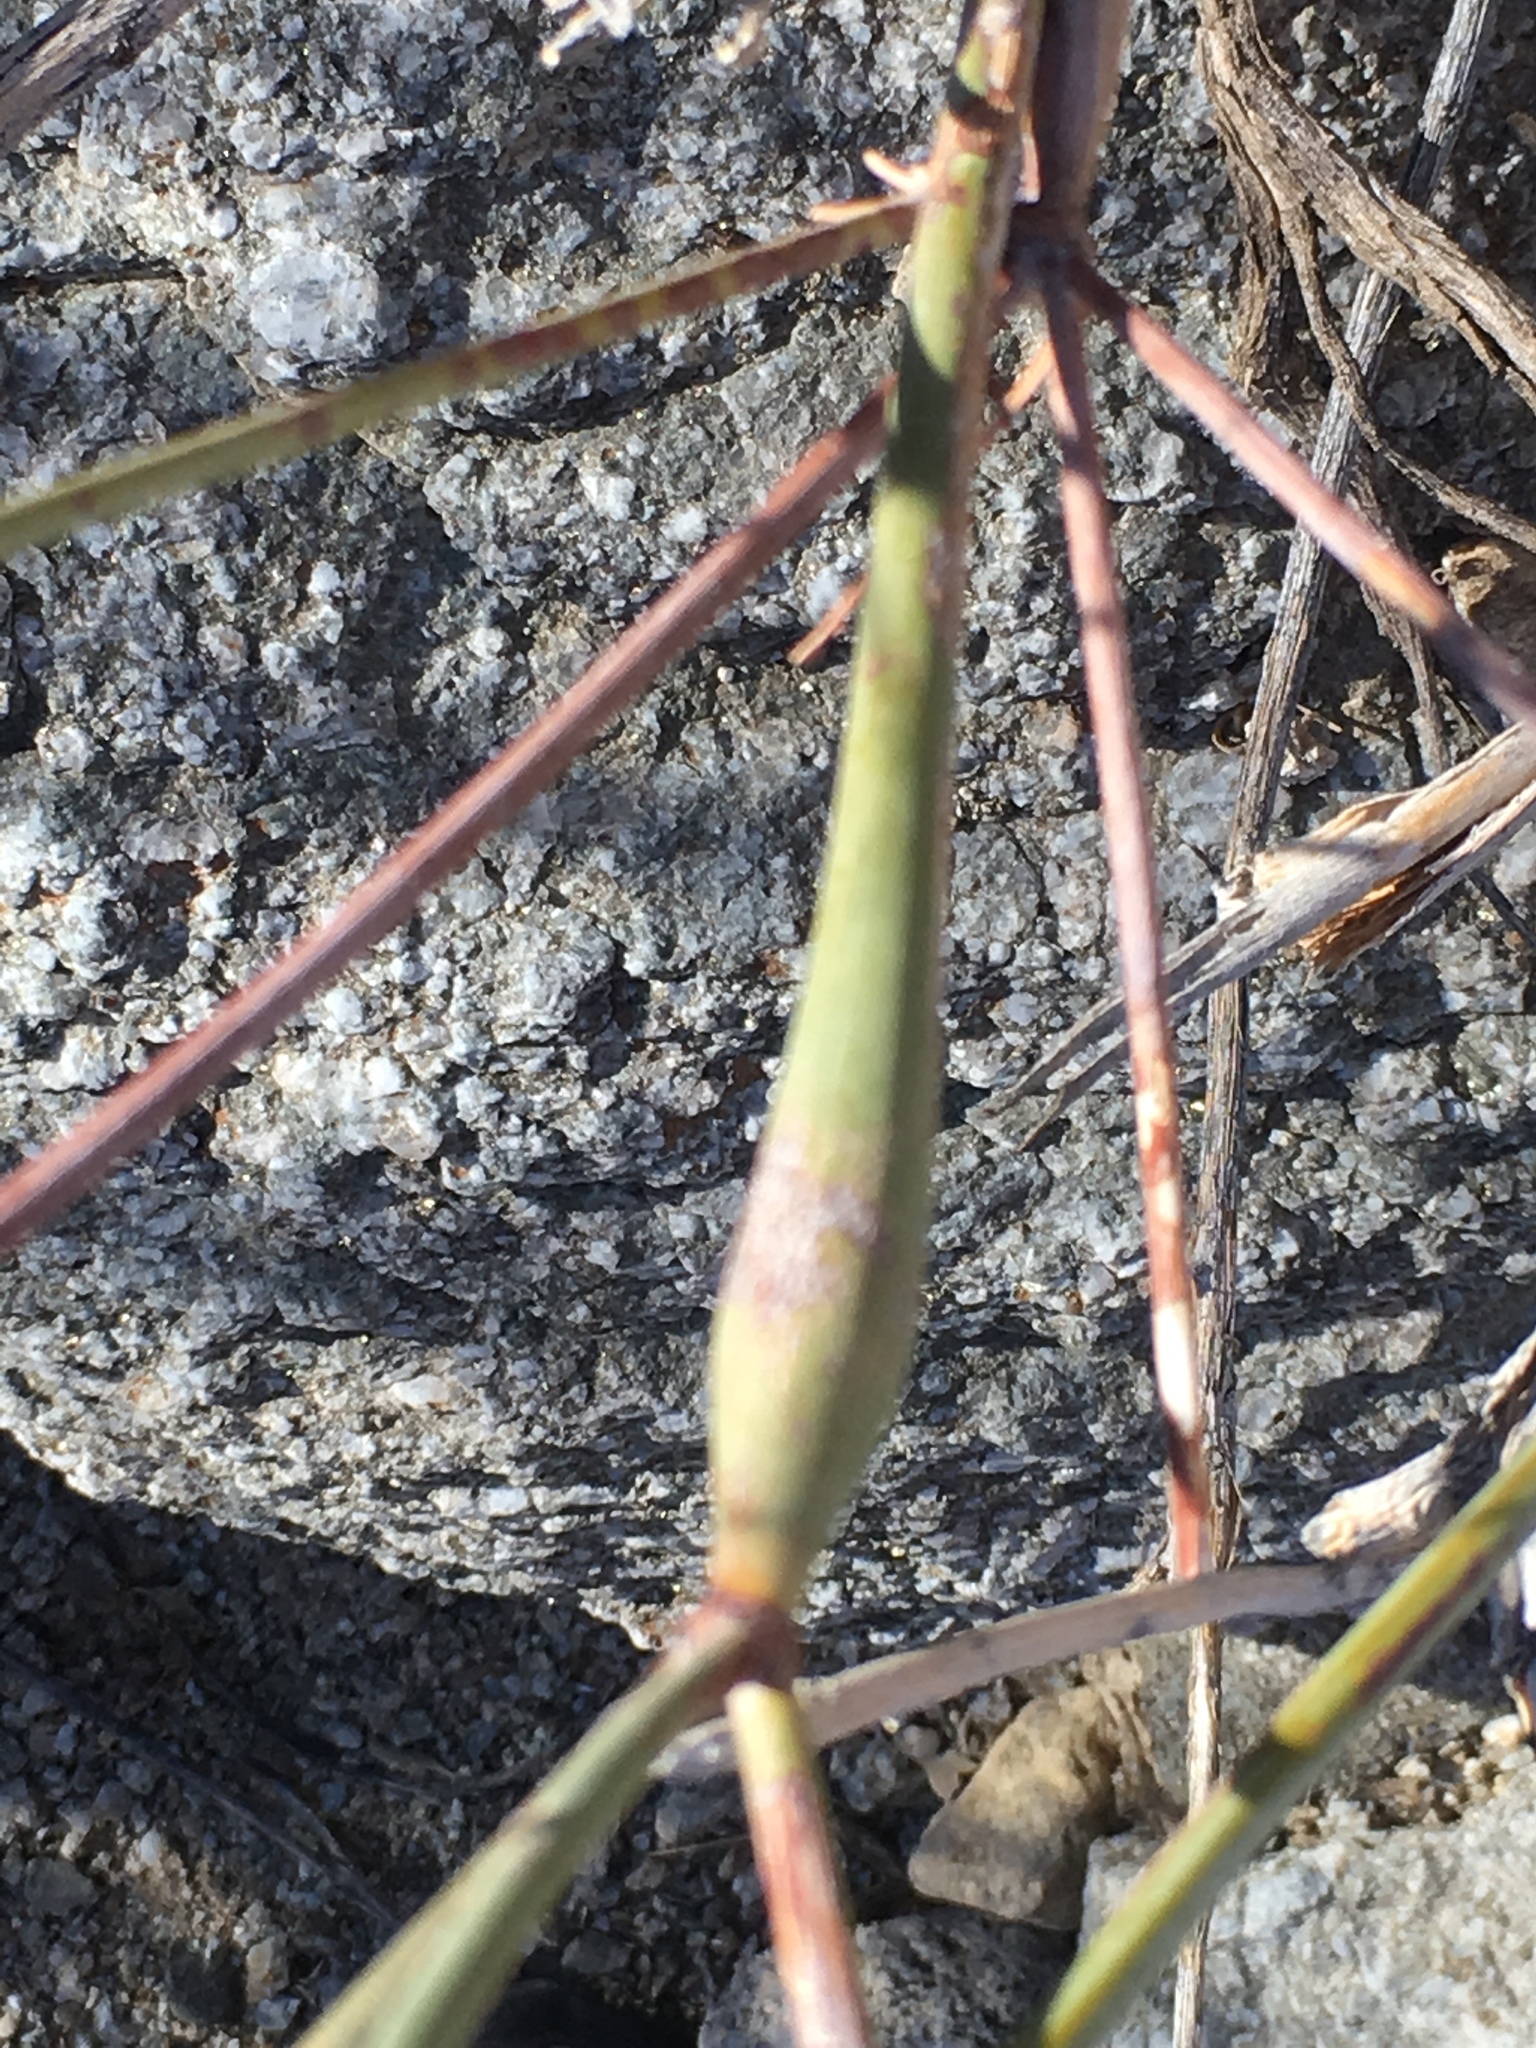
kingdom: Plantae
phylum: Tracheophyta
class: Magnoliopsida
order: Caryophyllales
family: Polygonaceae
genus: Eriogonum
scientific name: Eriogonum inflatum
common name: Desert trumpet
